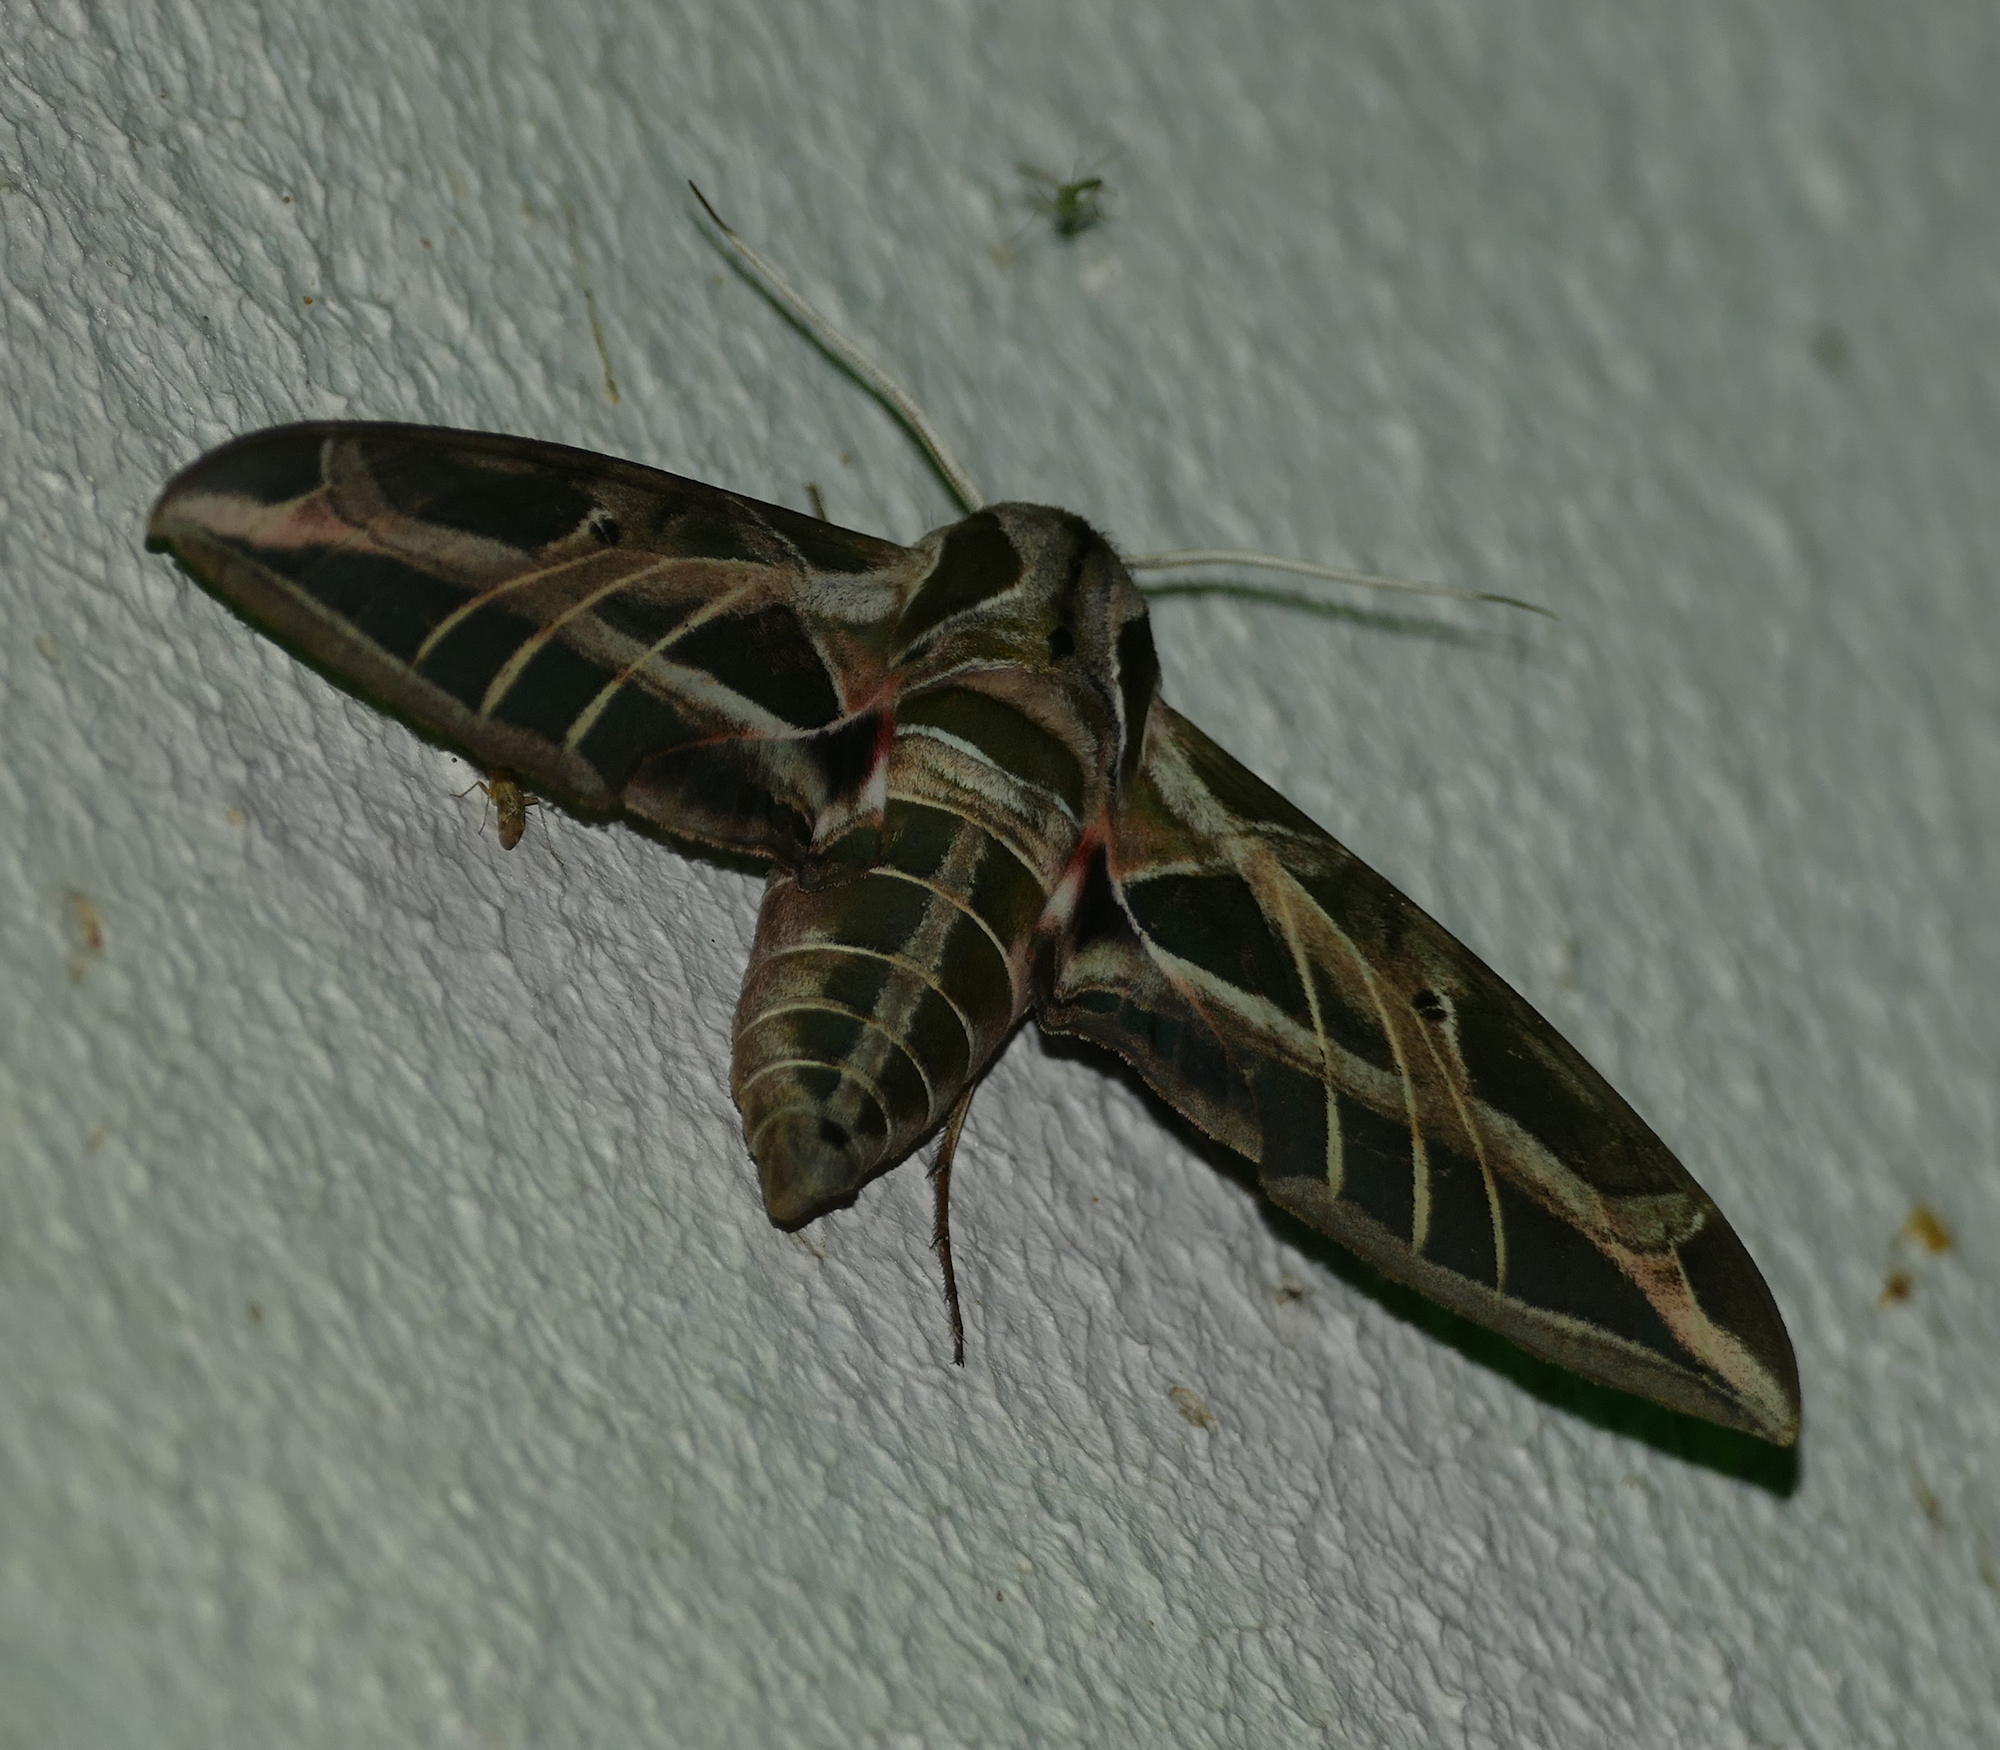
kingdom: Animalia
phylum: Arthropoda
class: Insecta
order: Lepidoptera
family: Sphingidae
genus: Eumorpha
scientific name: Eumorpha vitis
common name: Vine sphinx
